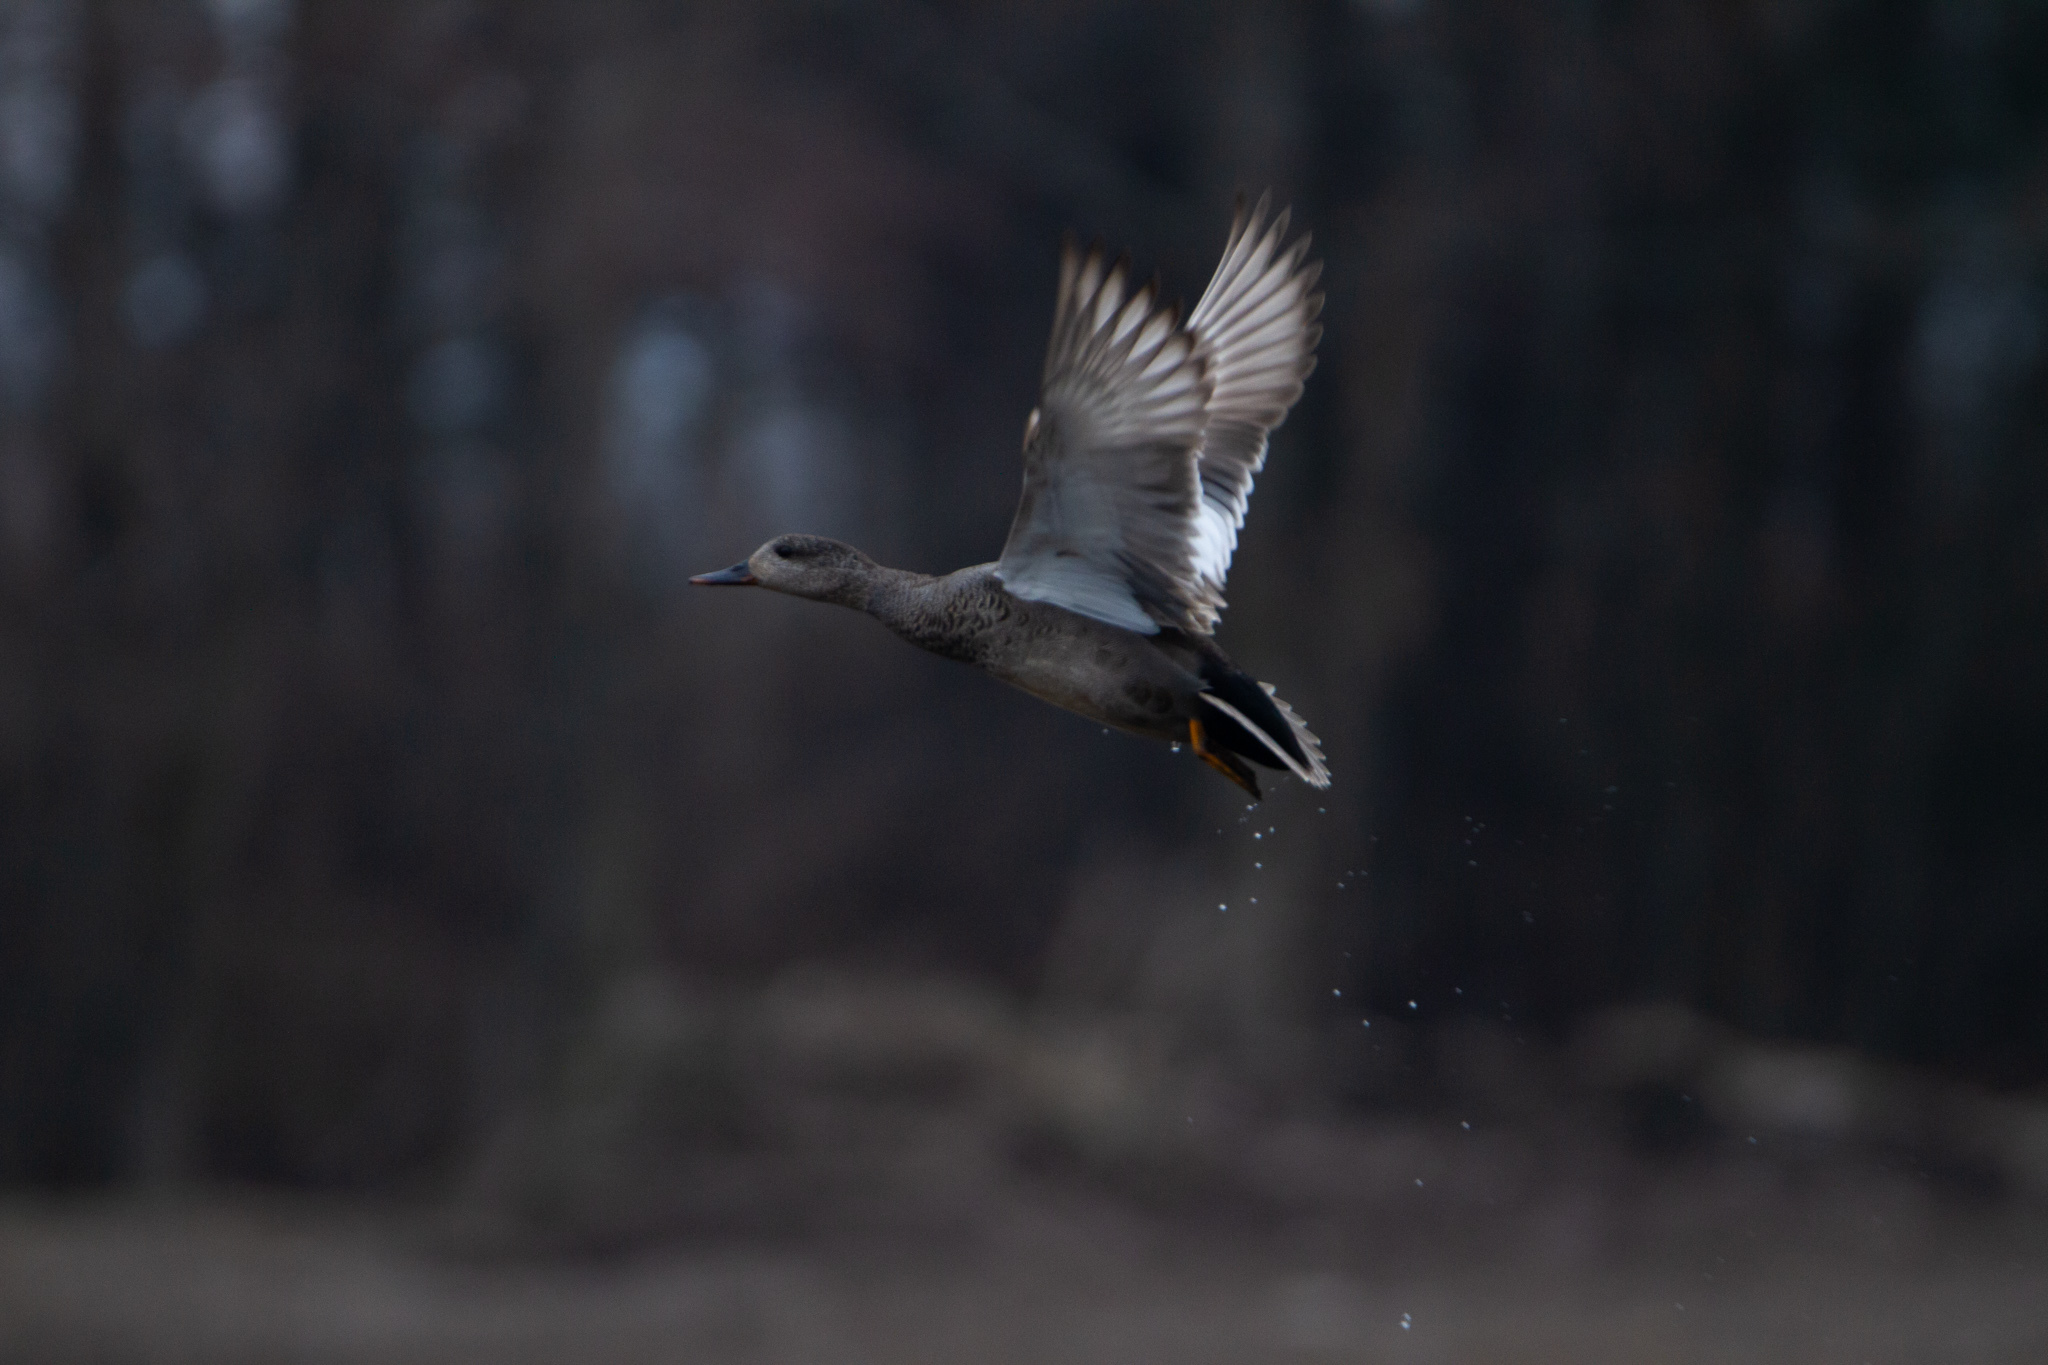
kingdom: Animalia
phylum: Chordata
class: Aves
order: Anseriformes
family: Anatidae
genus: Mareca
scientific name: Mareca strepera
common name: Gadwall
